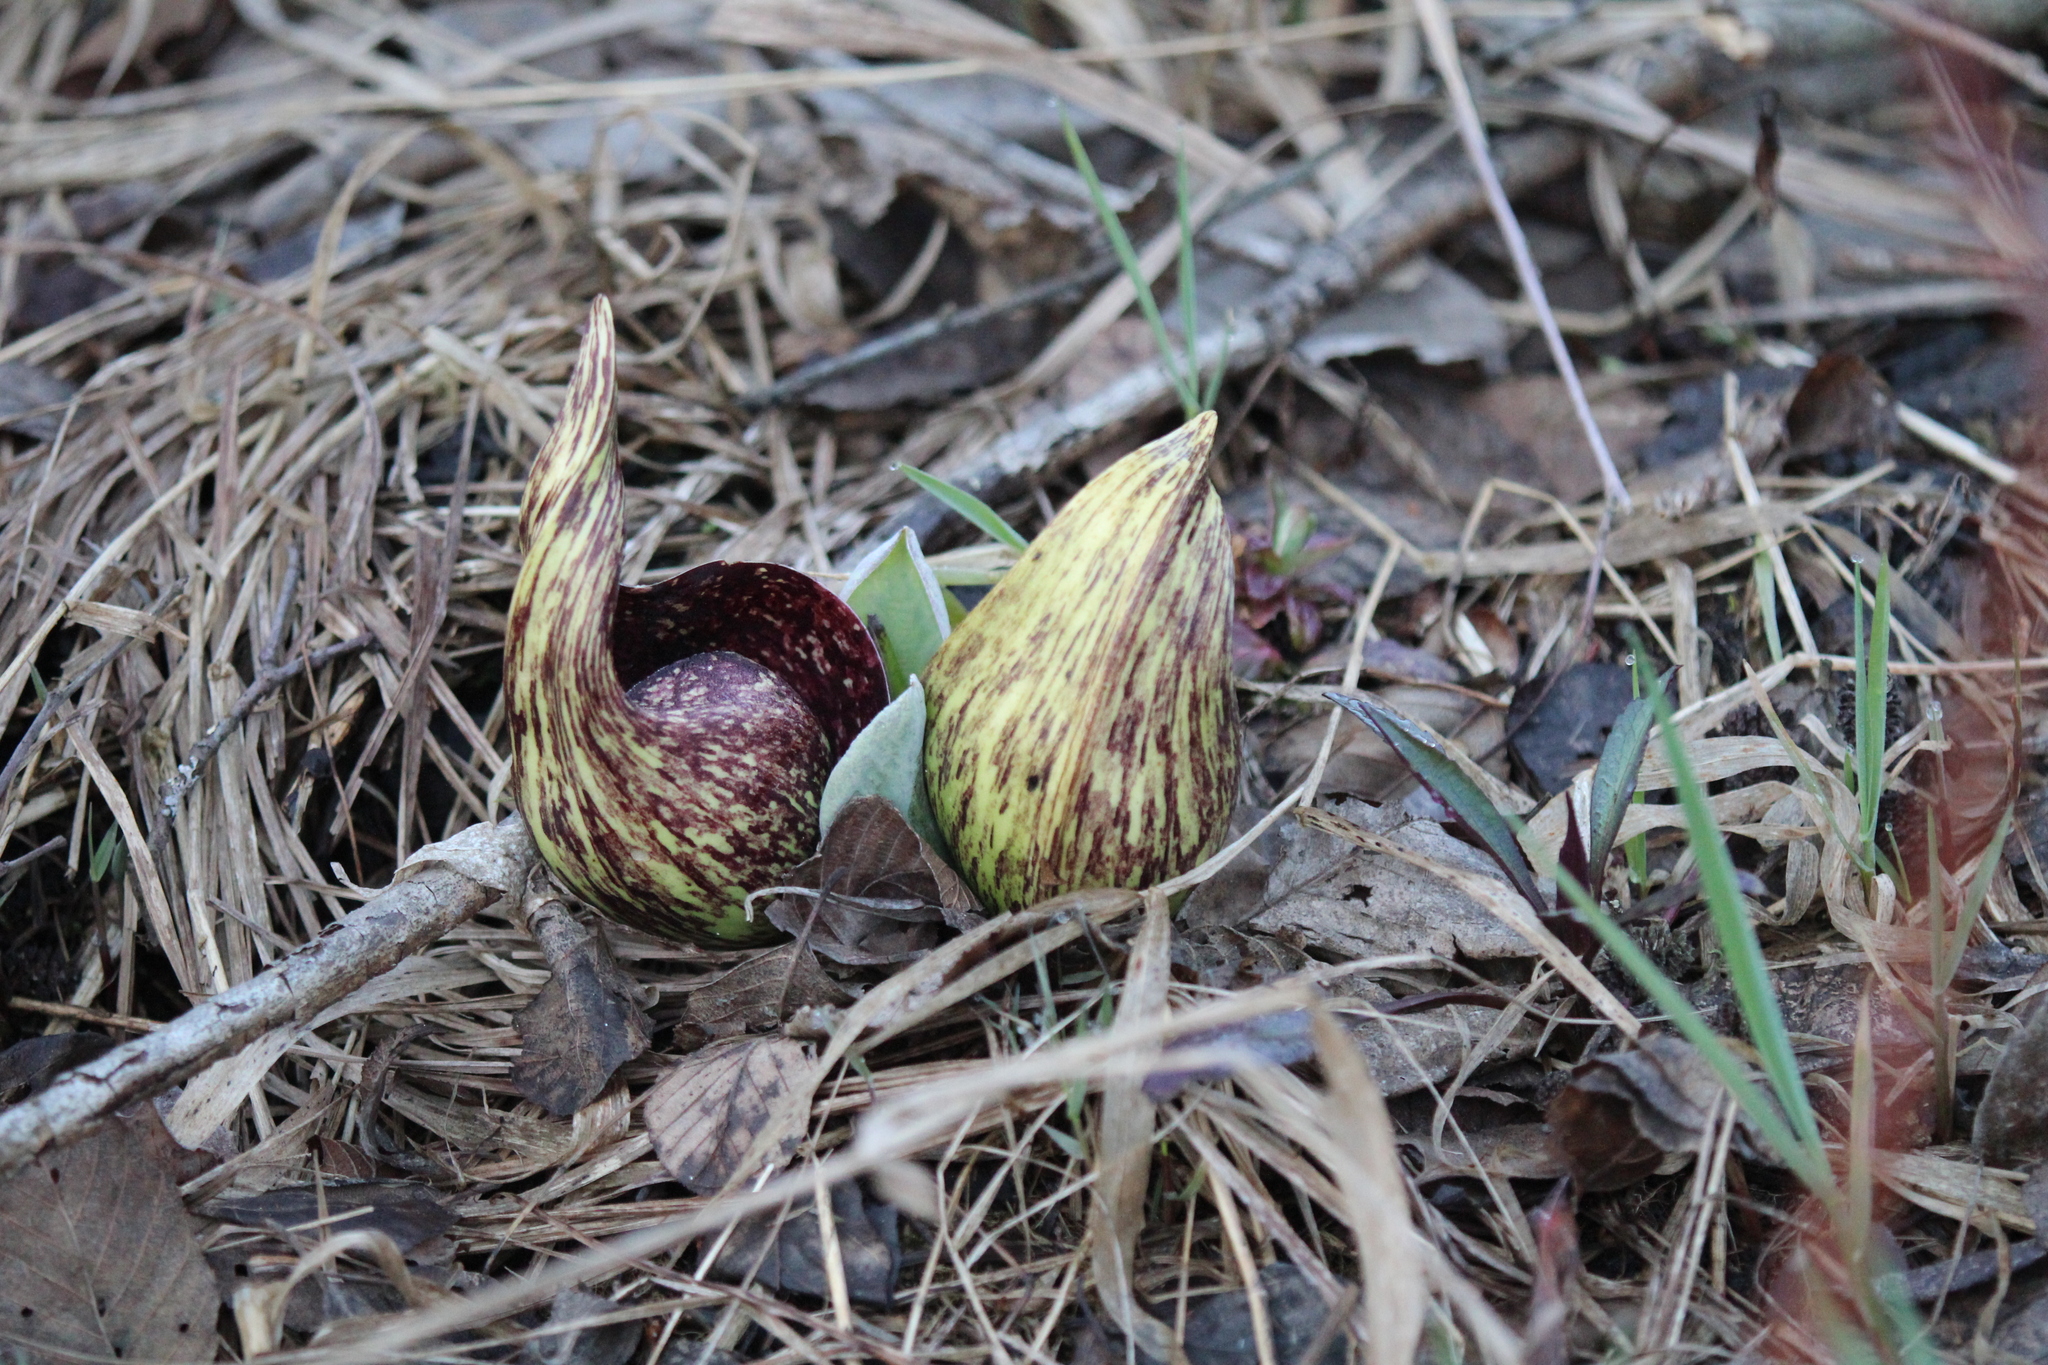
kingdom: Plantae
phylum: Tracheophyta
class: Liliopsida
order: Alismatales
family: Araceae
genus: Symplocarpus
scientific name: Symplocarpus foetidus
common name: Eastern skunk cabbage
